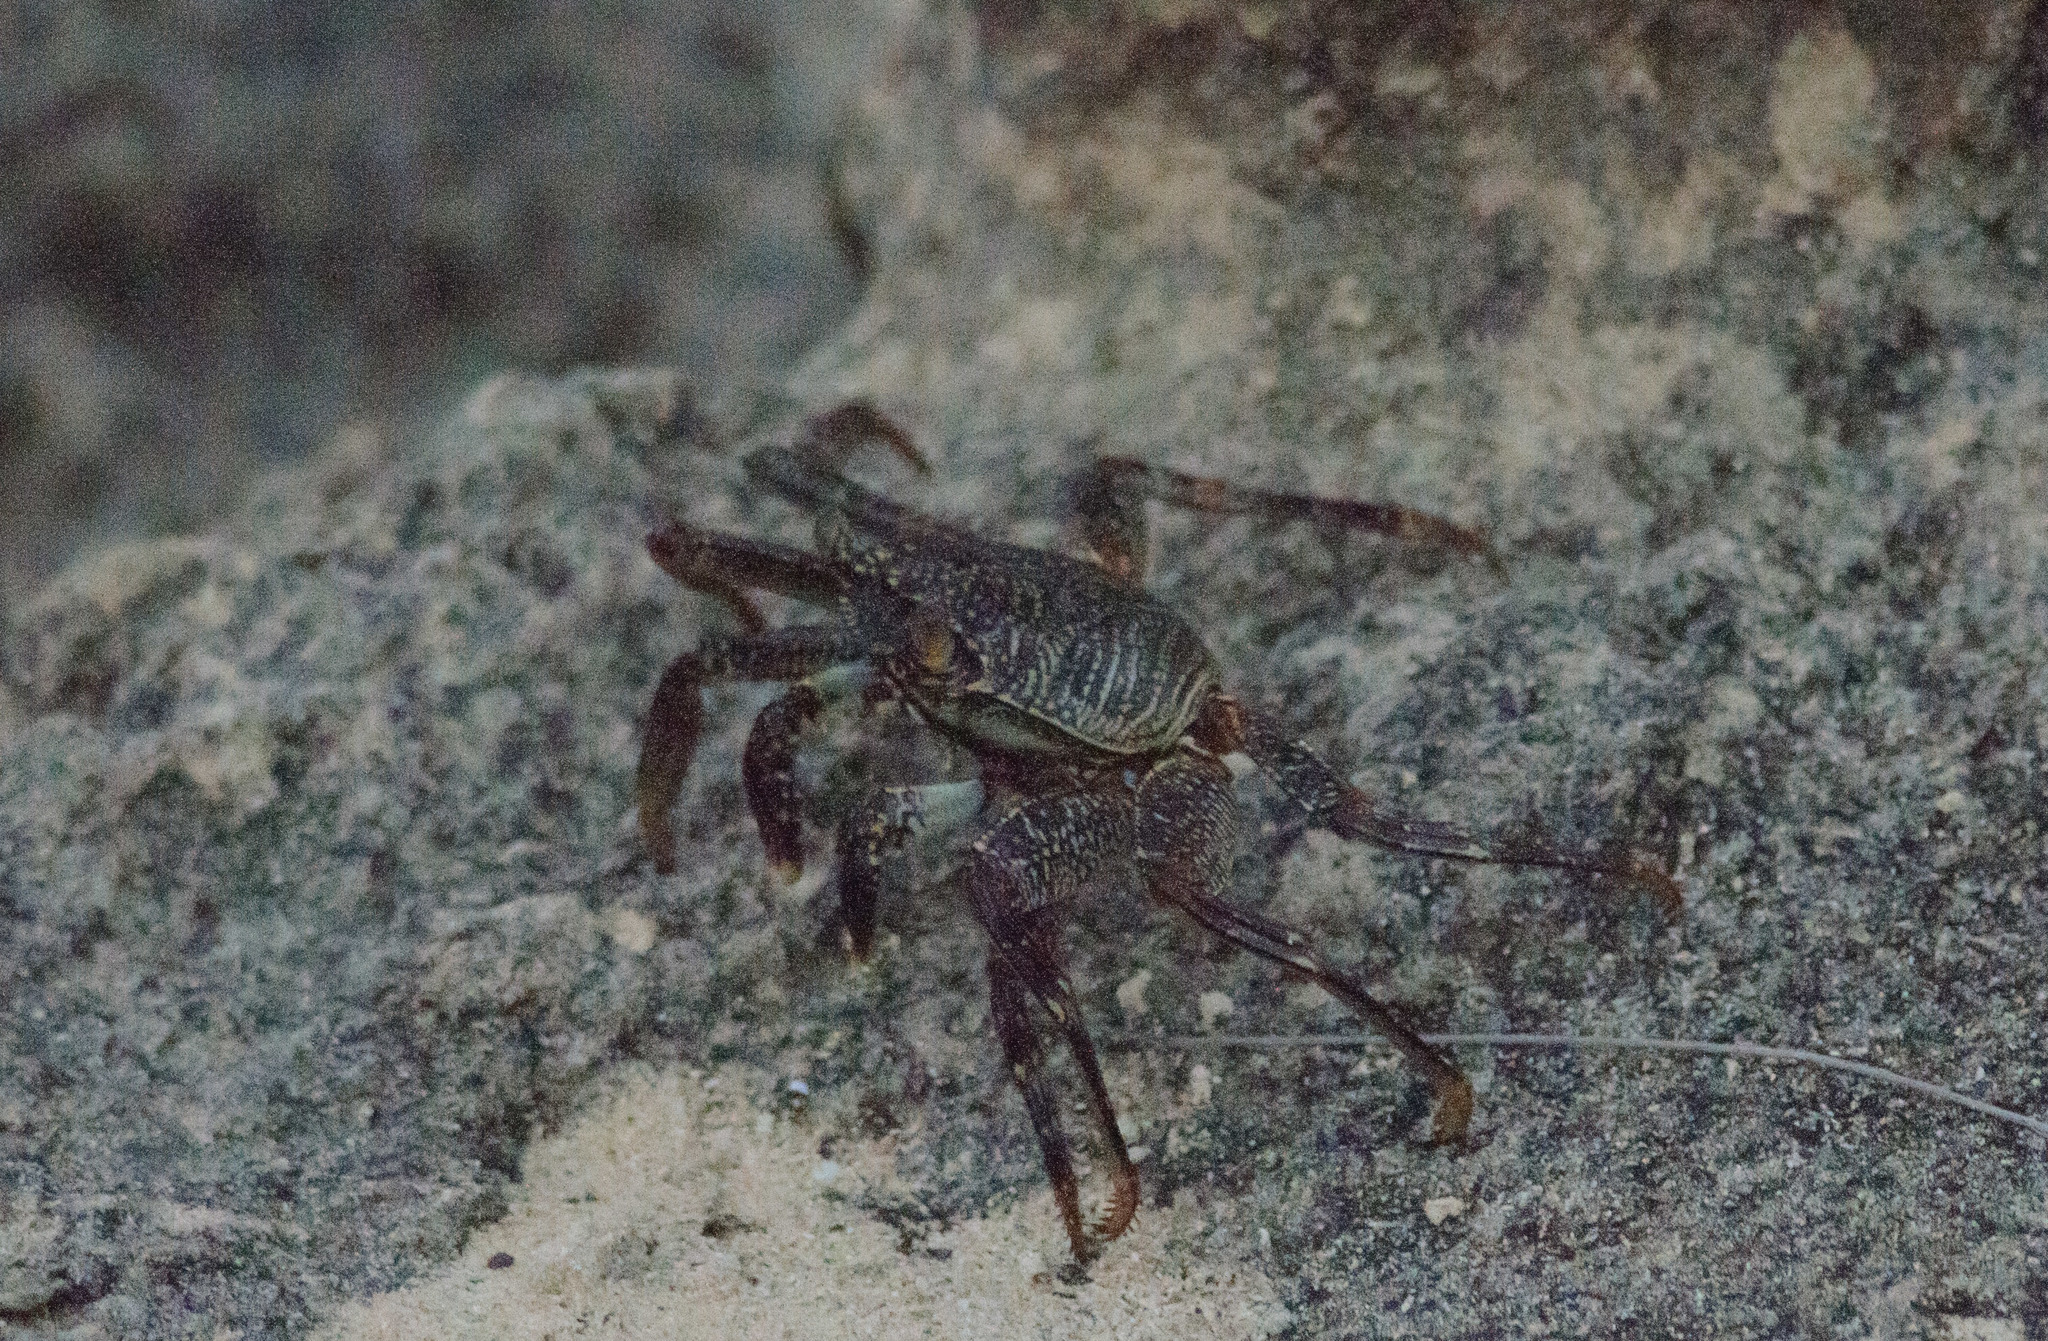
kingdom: Animalia
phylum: Arthropoda
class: Malacostraca
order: Decapoda
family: Grapsidae
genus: Grapsus
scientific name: Grapsus tenuicrustatus
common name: Natal lightfoot crab
